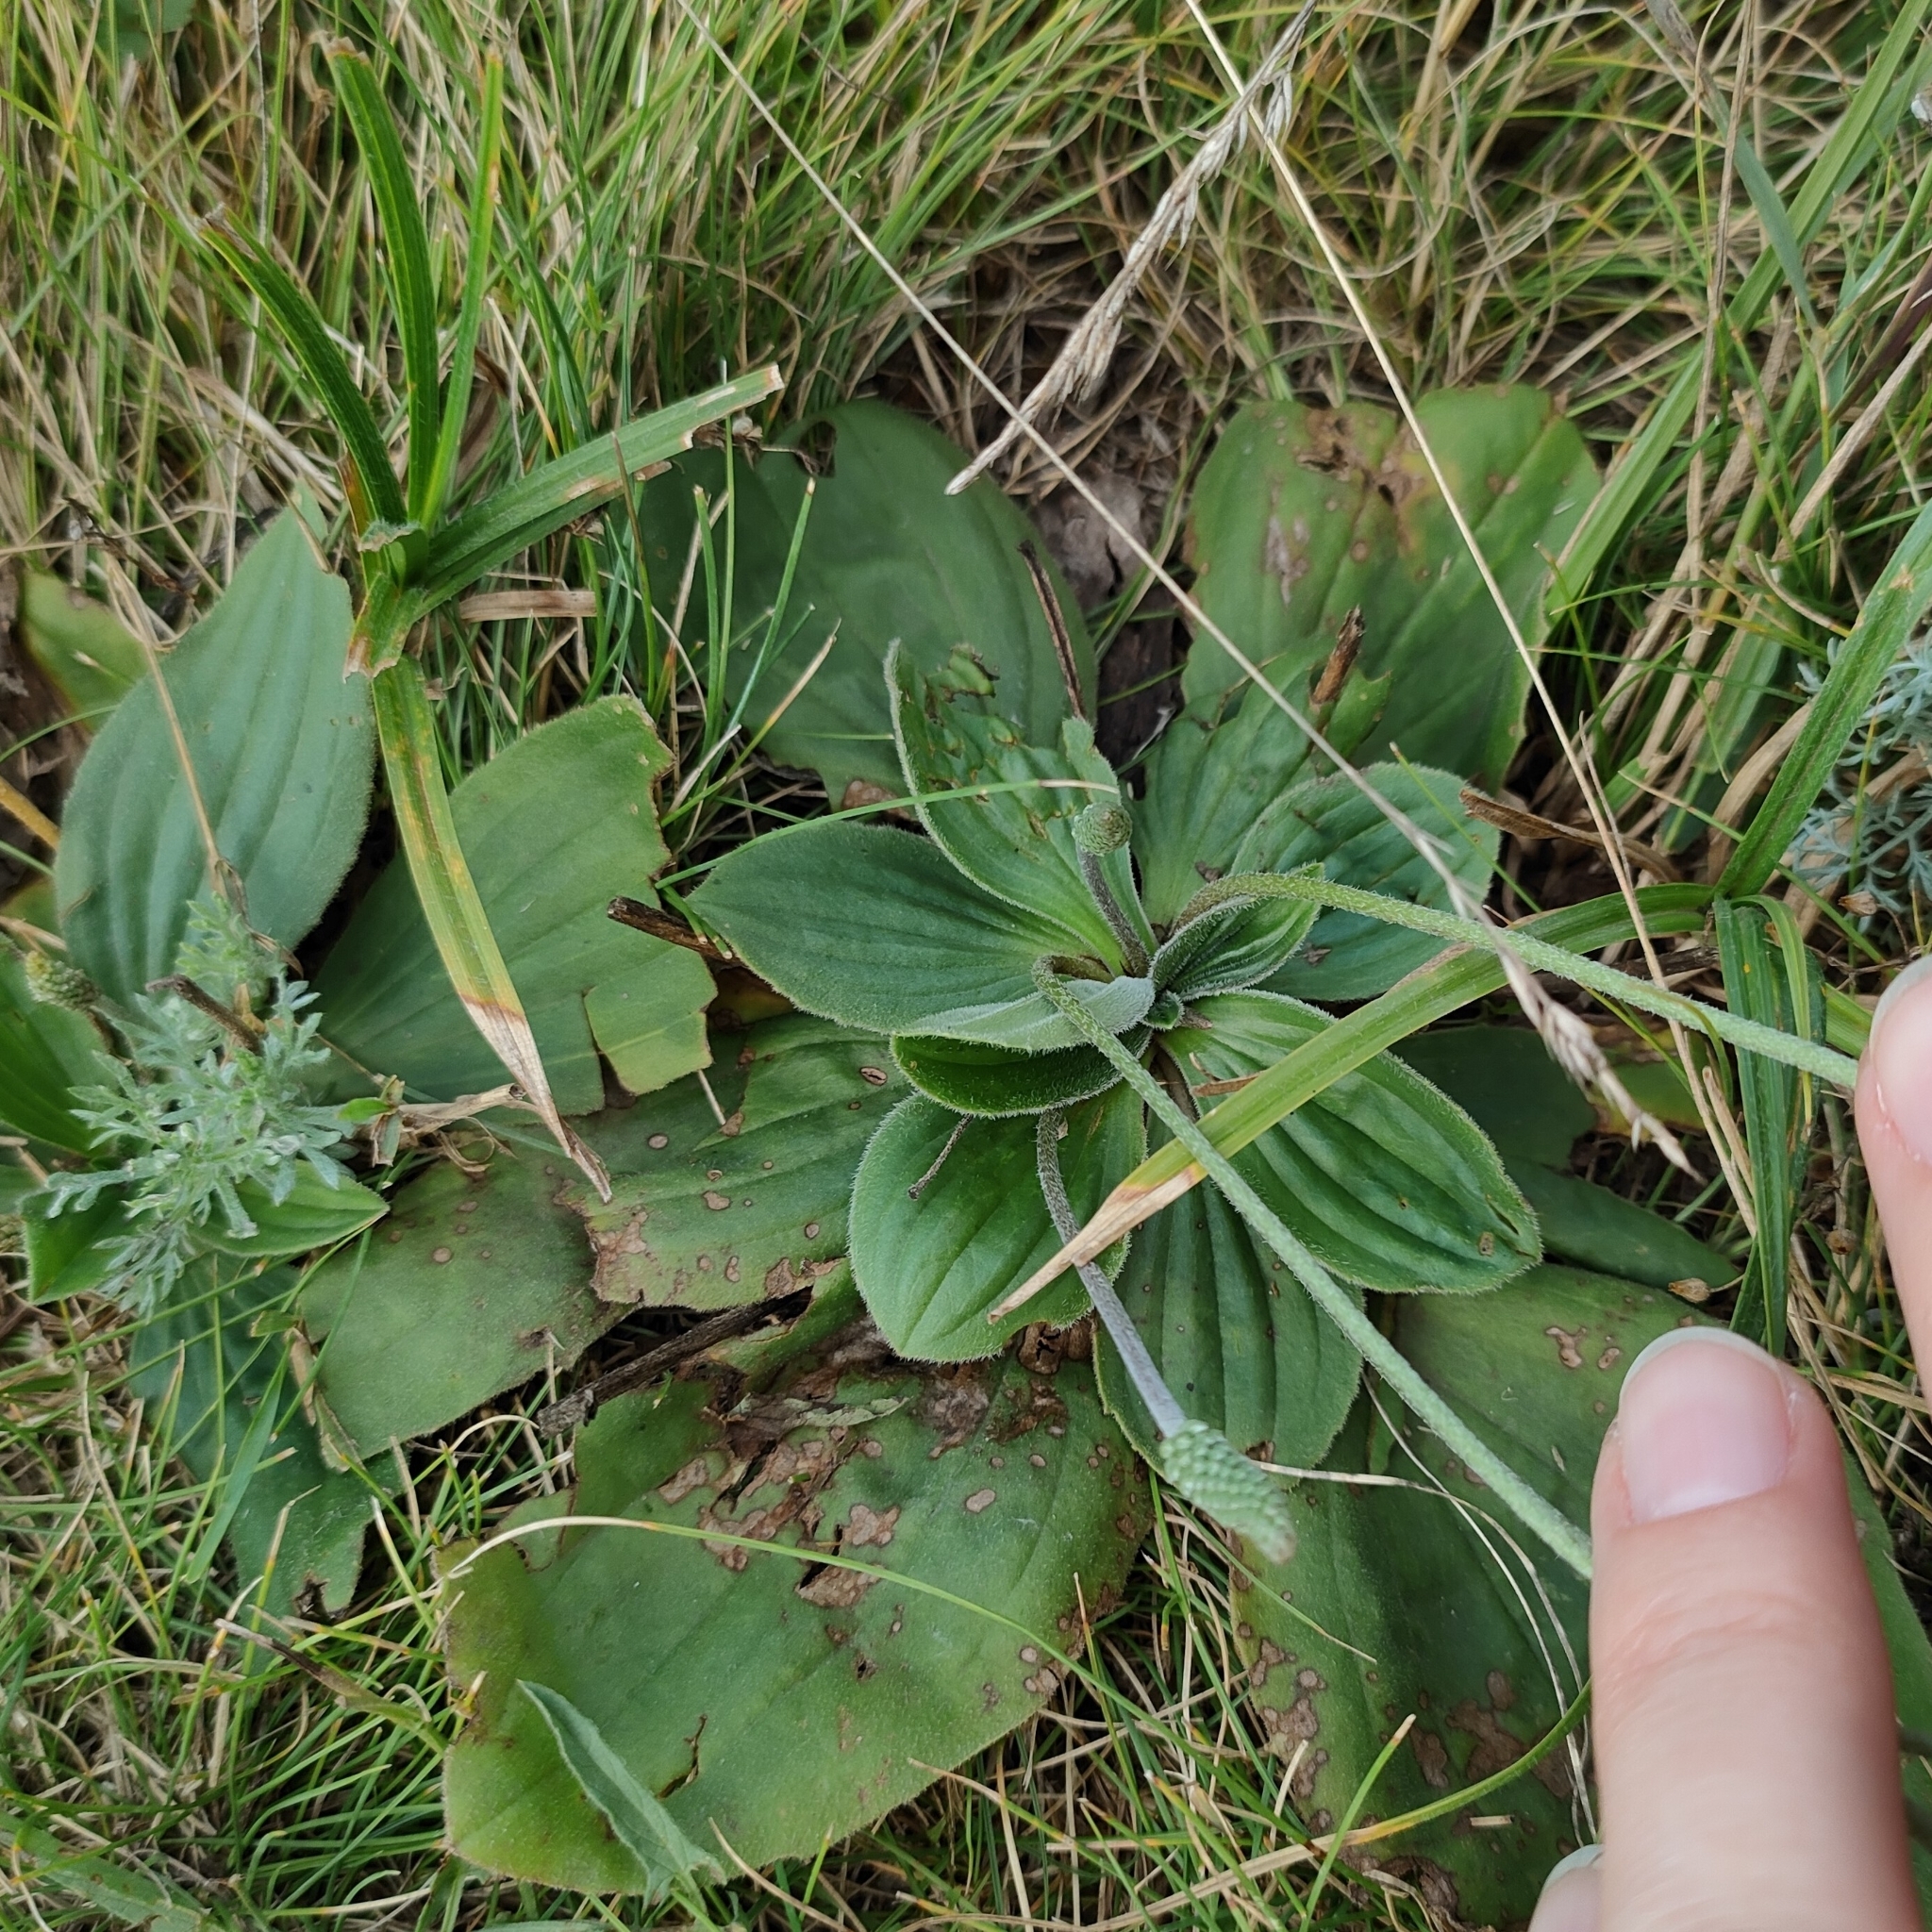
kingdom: Plantae
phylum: Tracheophyta
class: Magnoliopsida
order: Lamiales
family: Plantaginaceae
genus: Plantago
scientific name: Plantago media
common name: Hoary plantain
